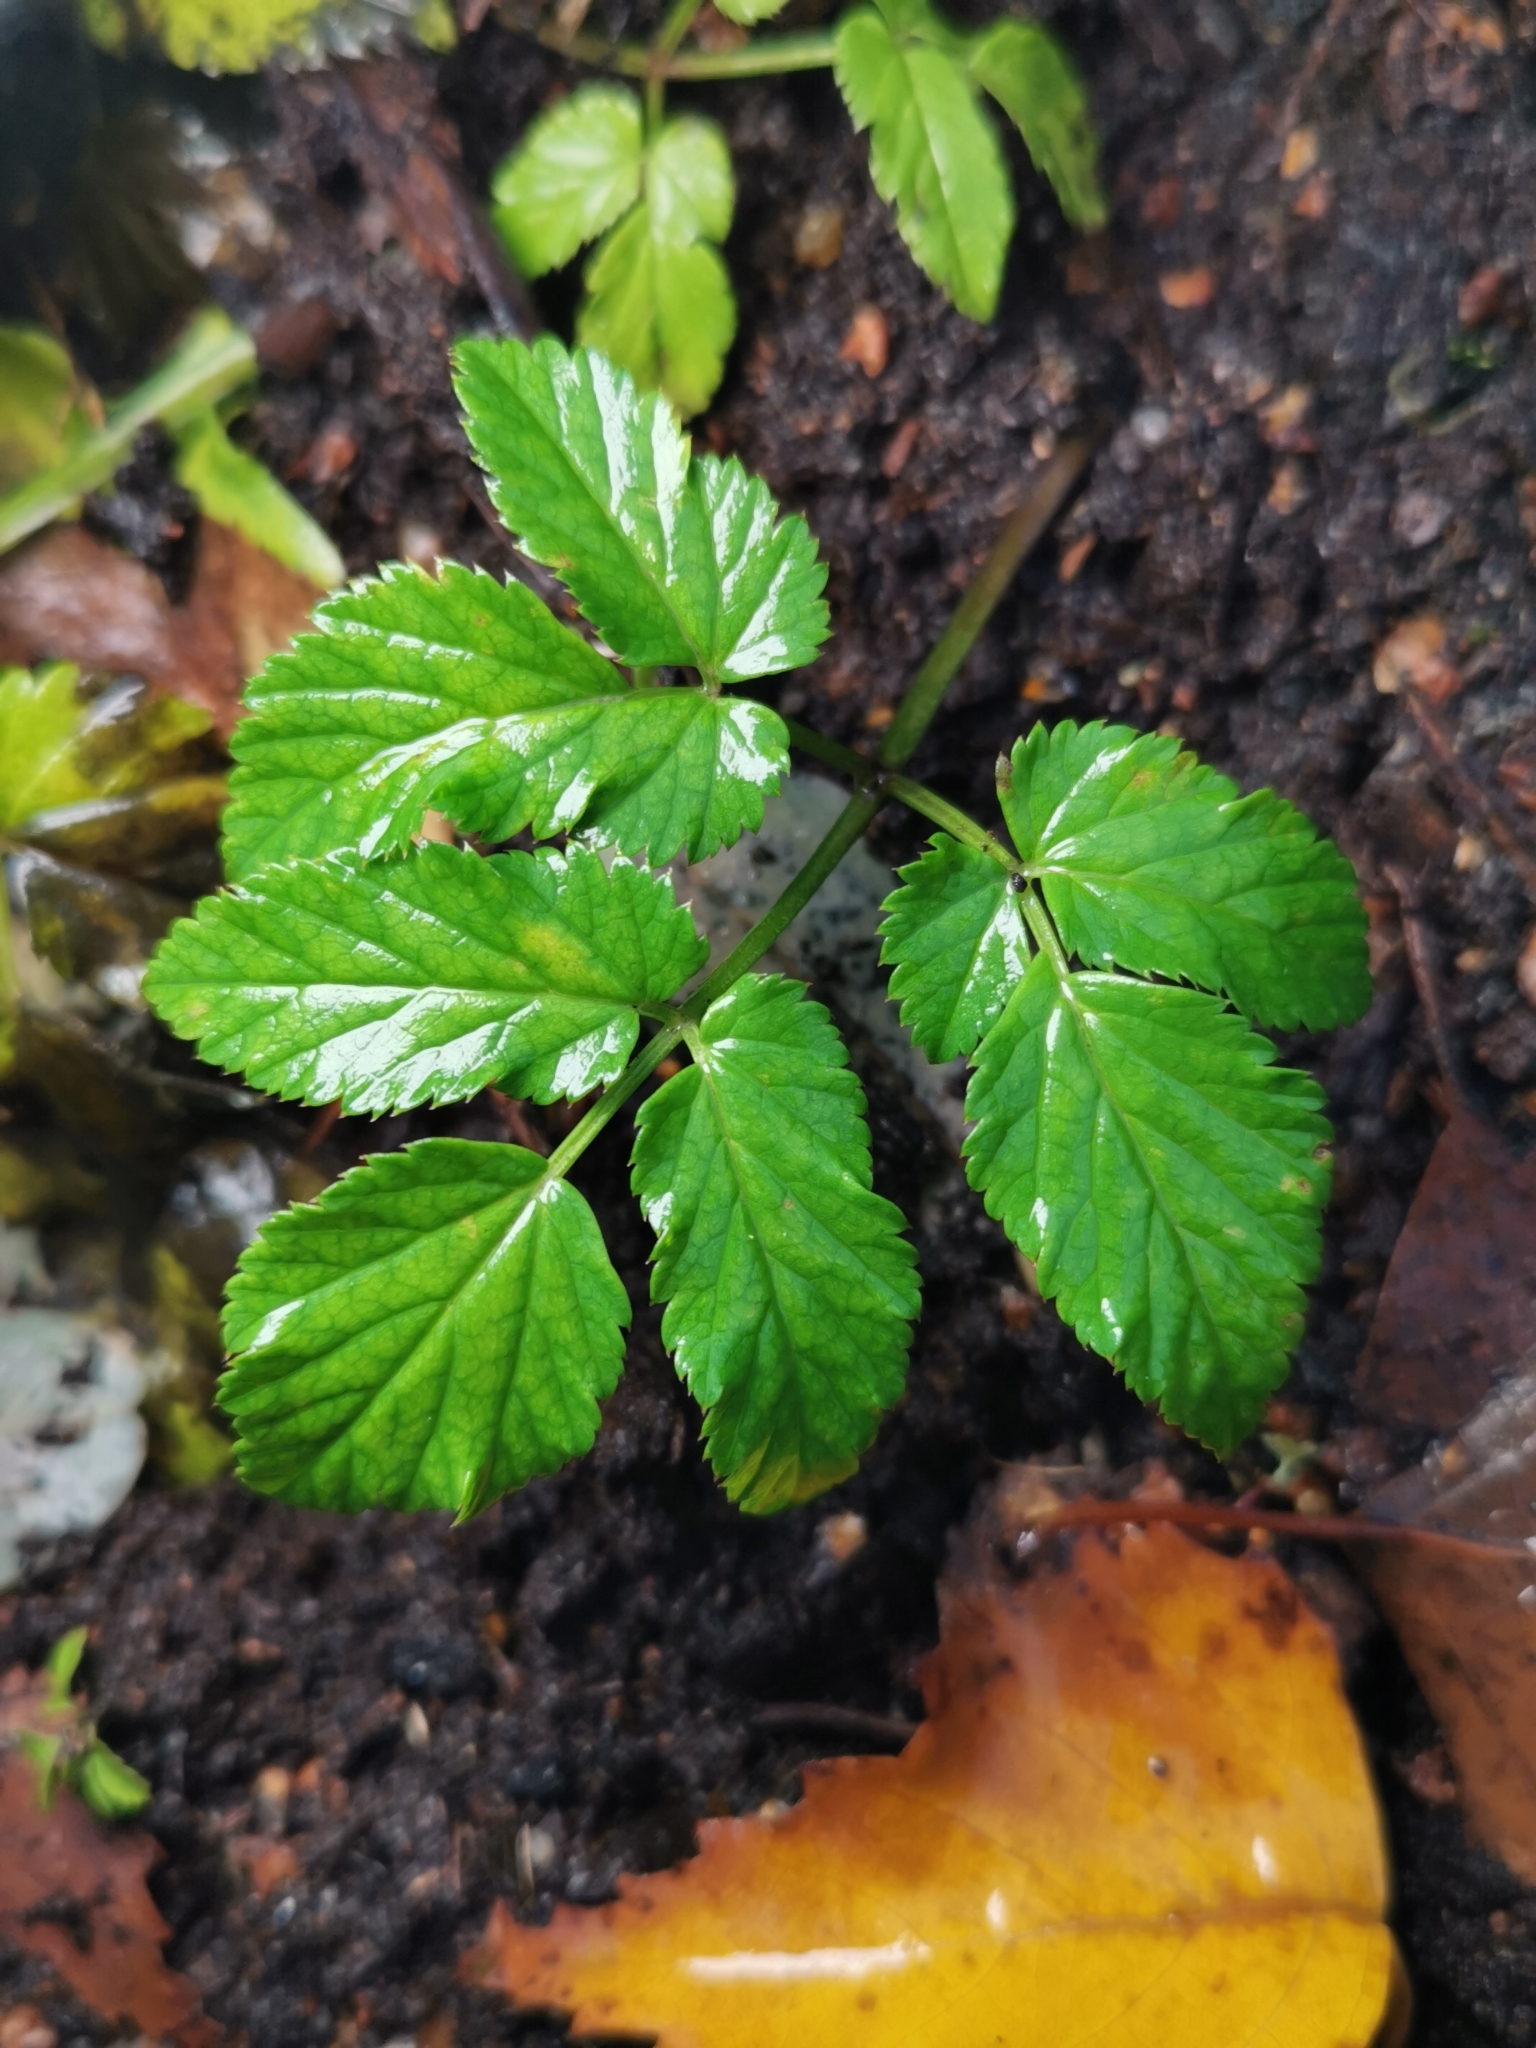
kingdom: Plantae
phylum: Tracheophyta
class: Magnoliopsida
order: Apiales
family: Apiaceae
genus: Aegopodium
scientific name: Aegopodium podagraria
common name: Ground-elder
